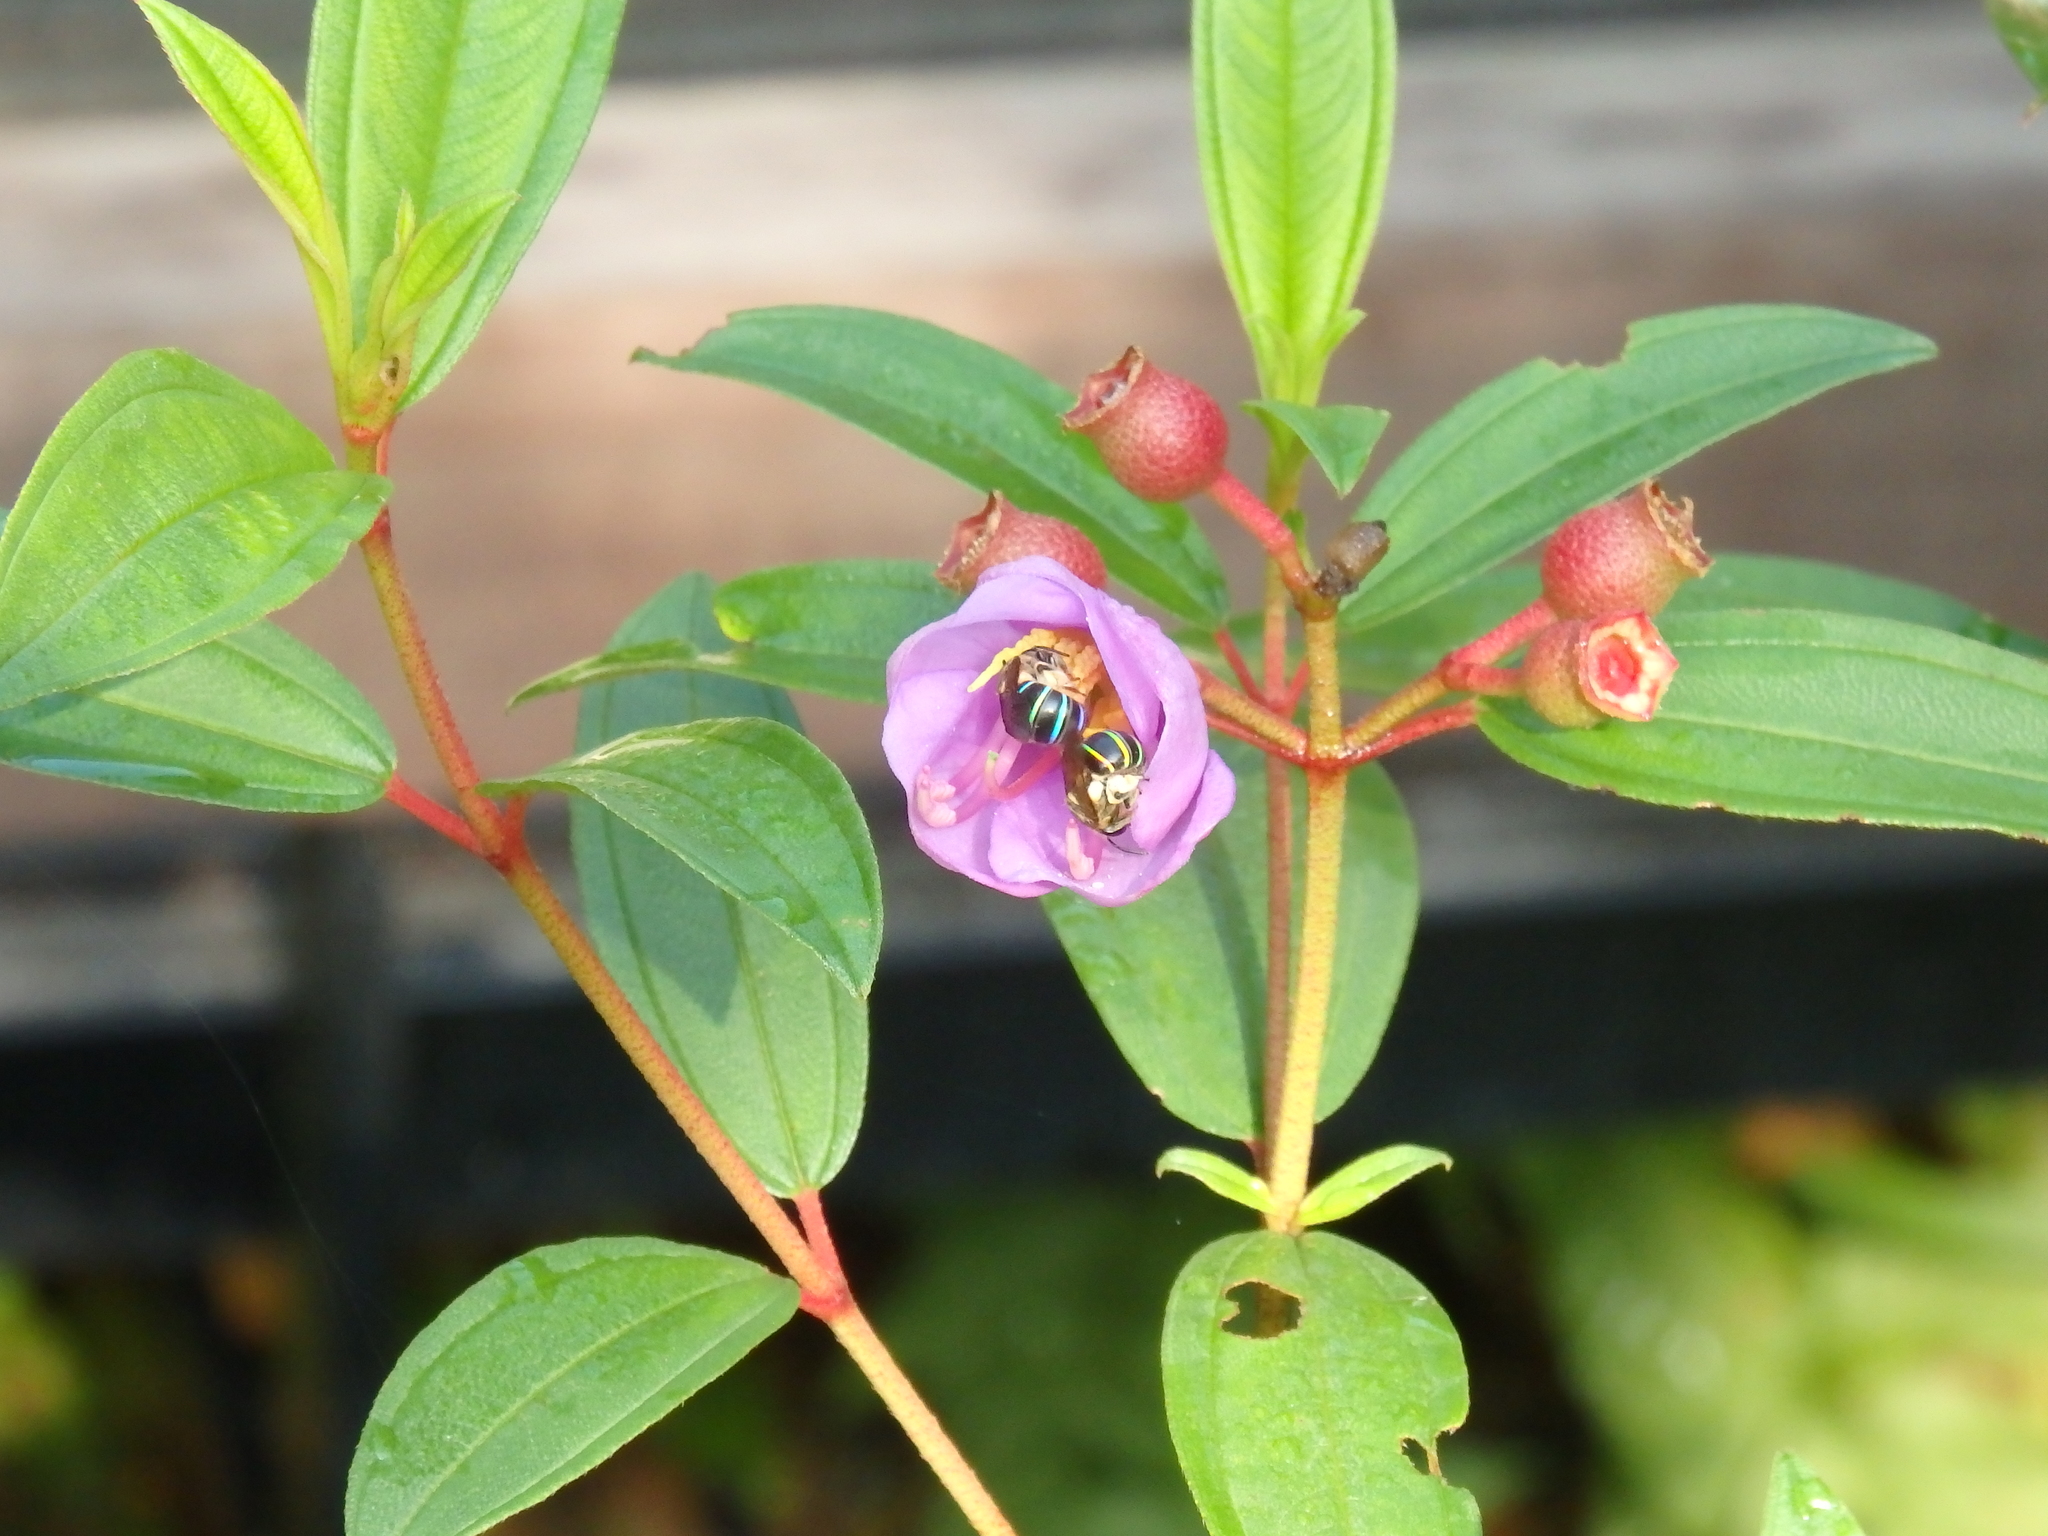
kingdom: Animalia
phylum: Arthropoda
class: Insecta
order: Hymenoptera
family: Halictidae
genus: Nomia
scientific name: Nomia strigata
